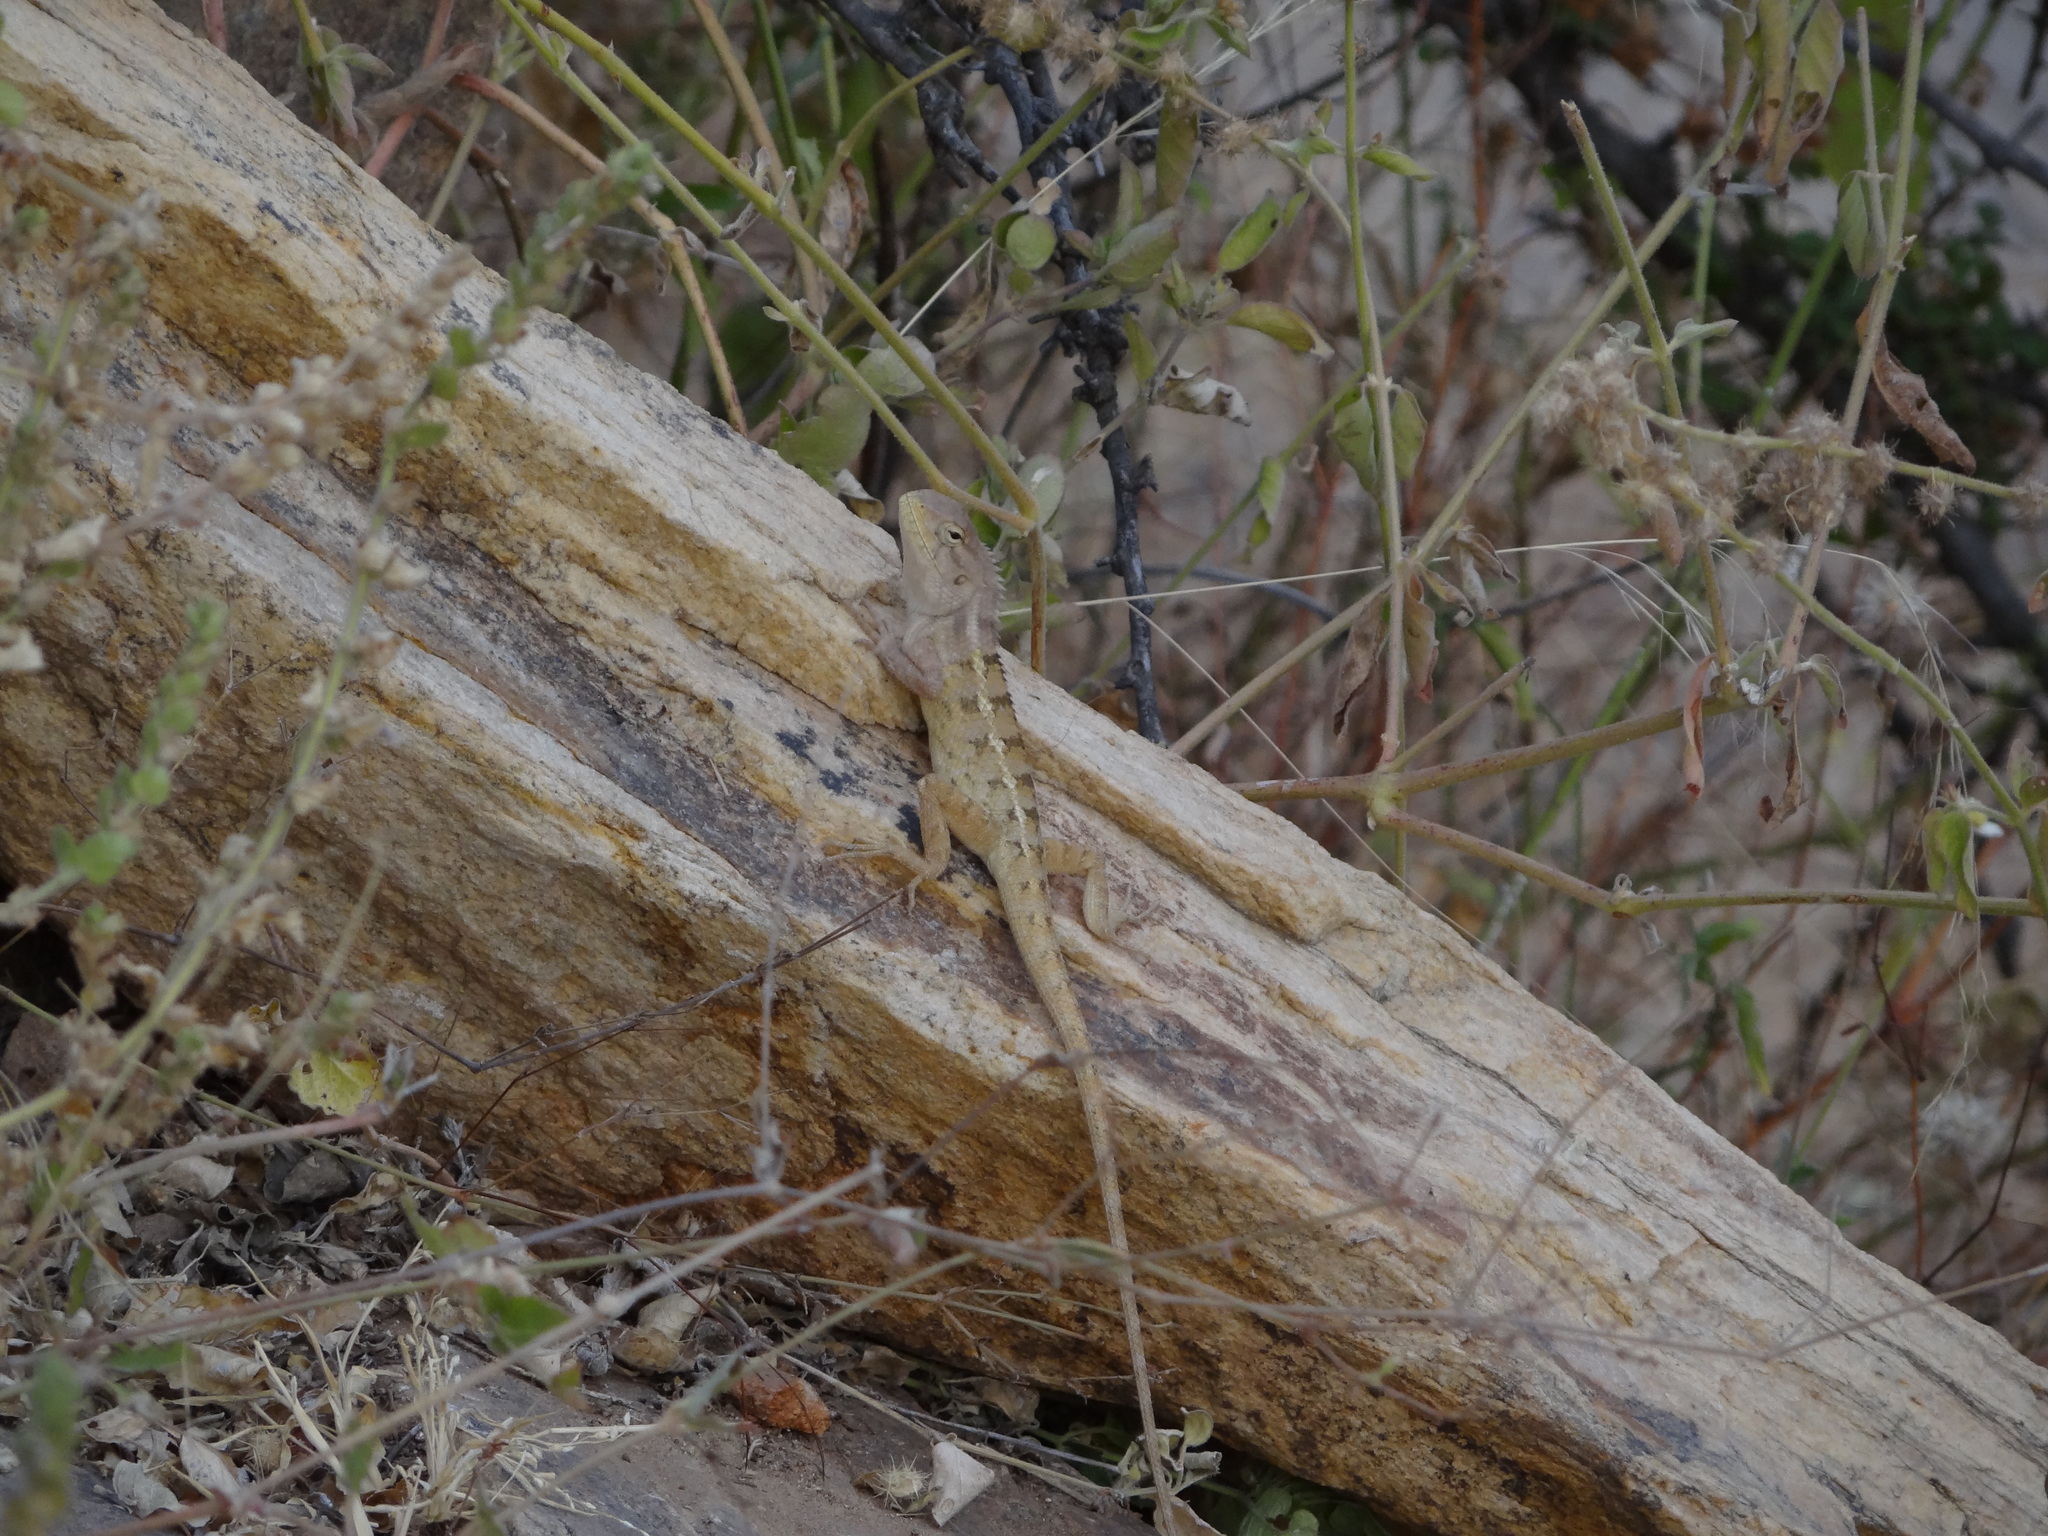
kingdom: Animalia
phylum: Chordata
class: Squamata
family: Agamidae
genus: Calotes
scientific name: Calotes versicolor
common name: Oriental garden lizard
